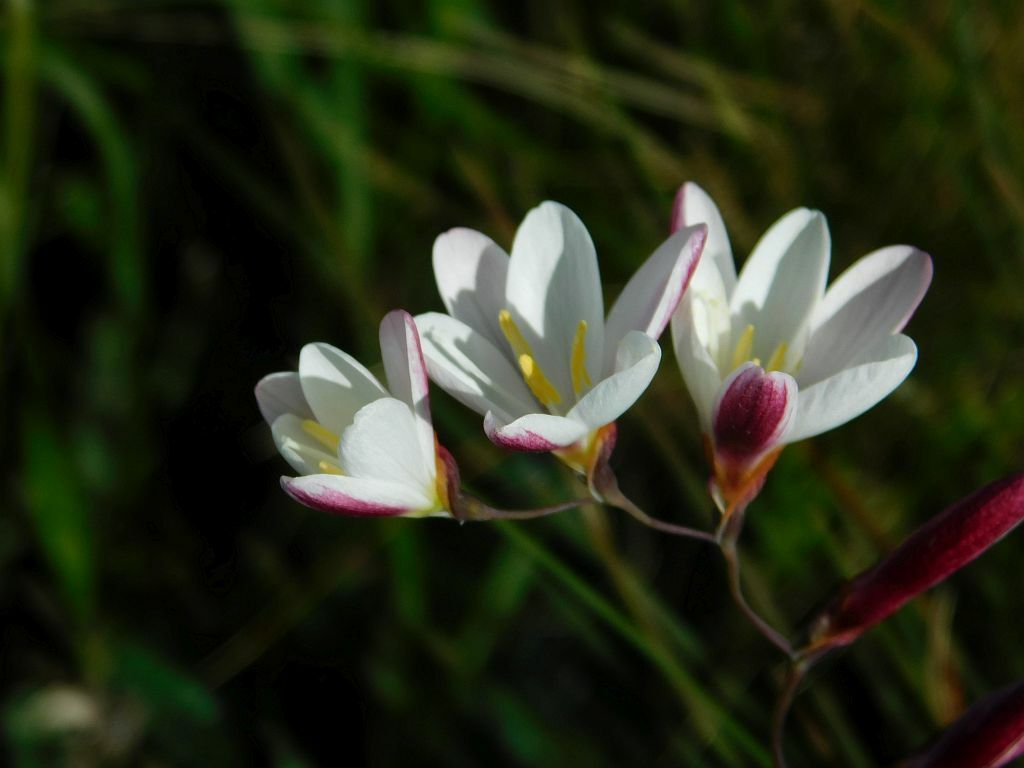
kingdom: Plantae
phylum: Tracheophyta
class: Liliopsida
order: Asparagales
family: Iridaceae
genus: Hesperantha
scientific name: Hesperantha falcata
